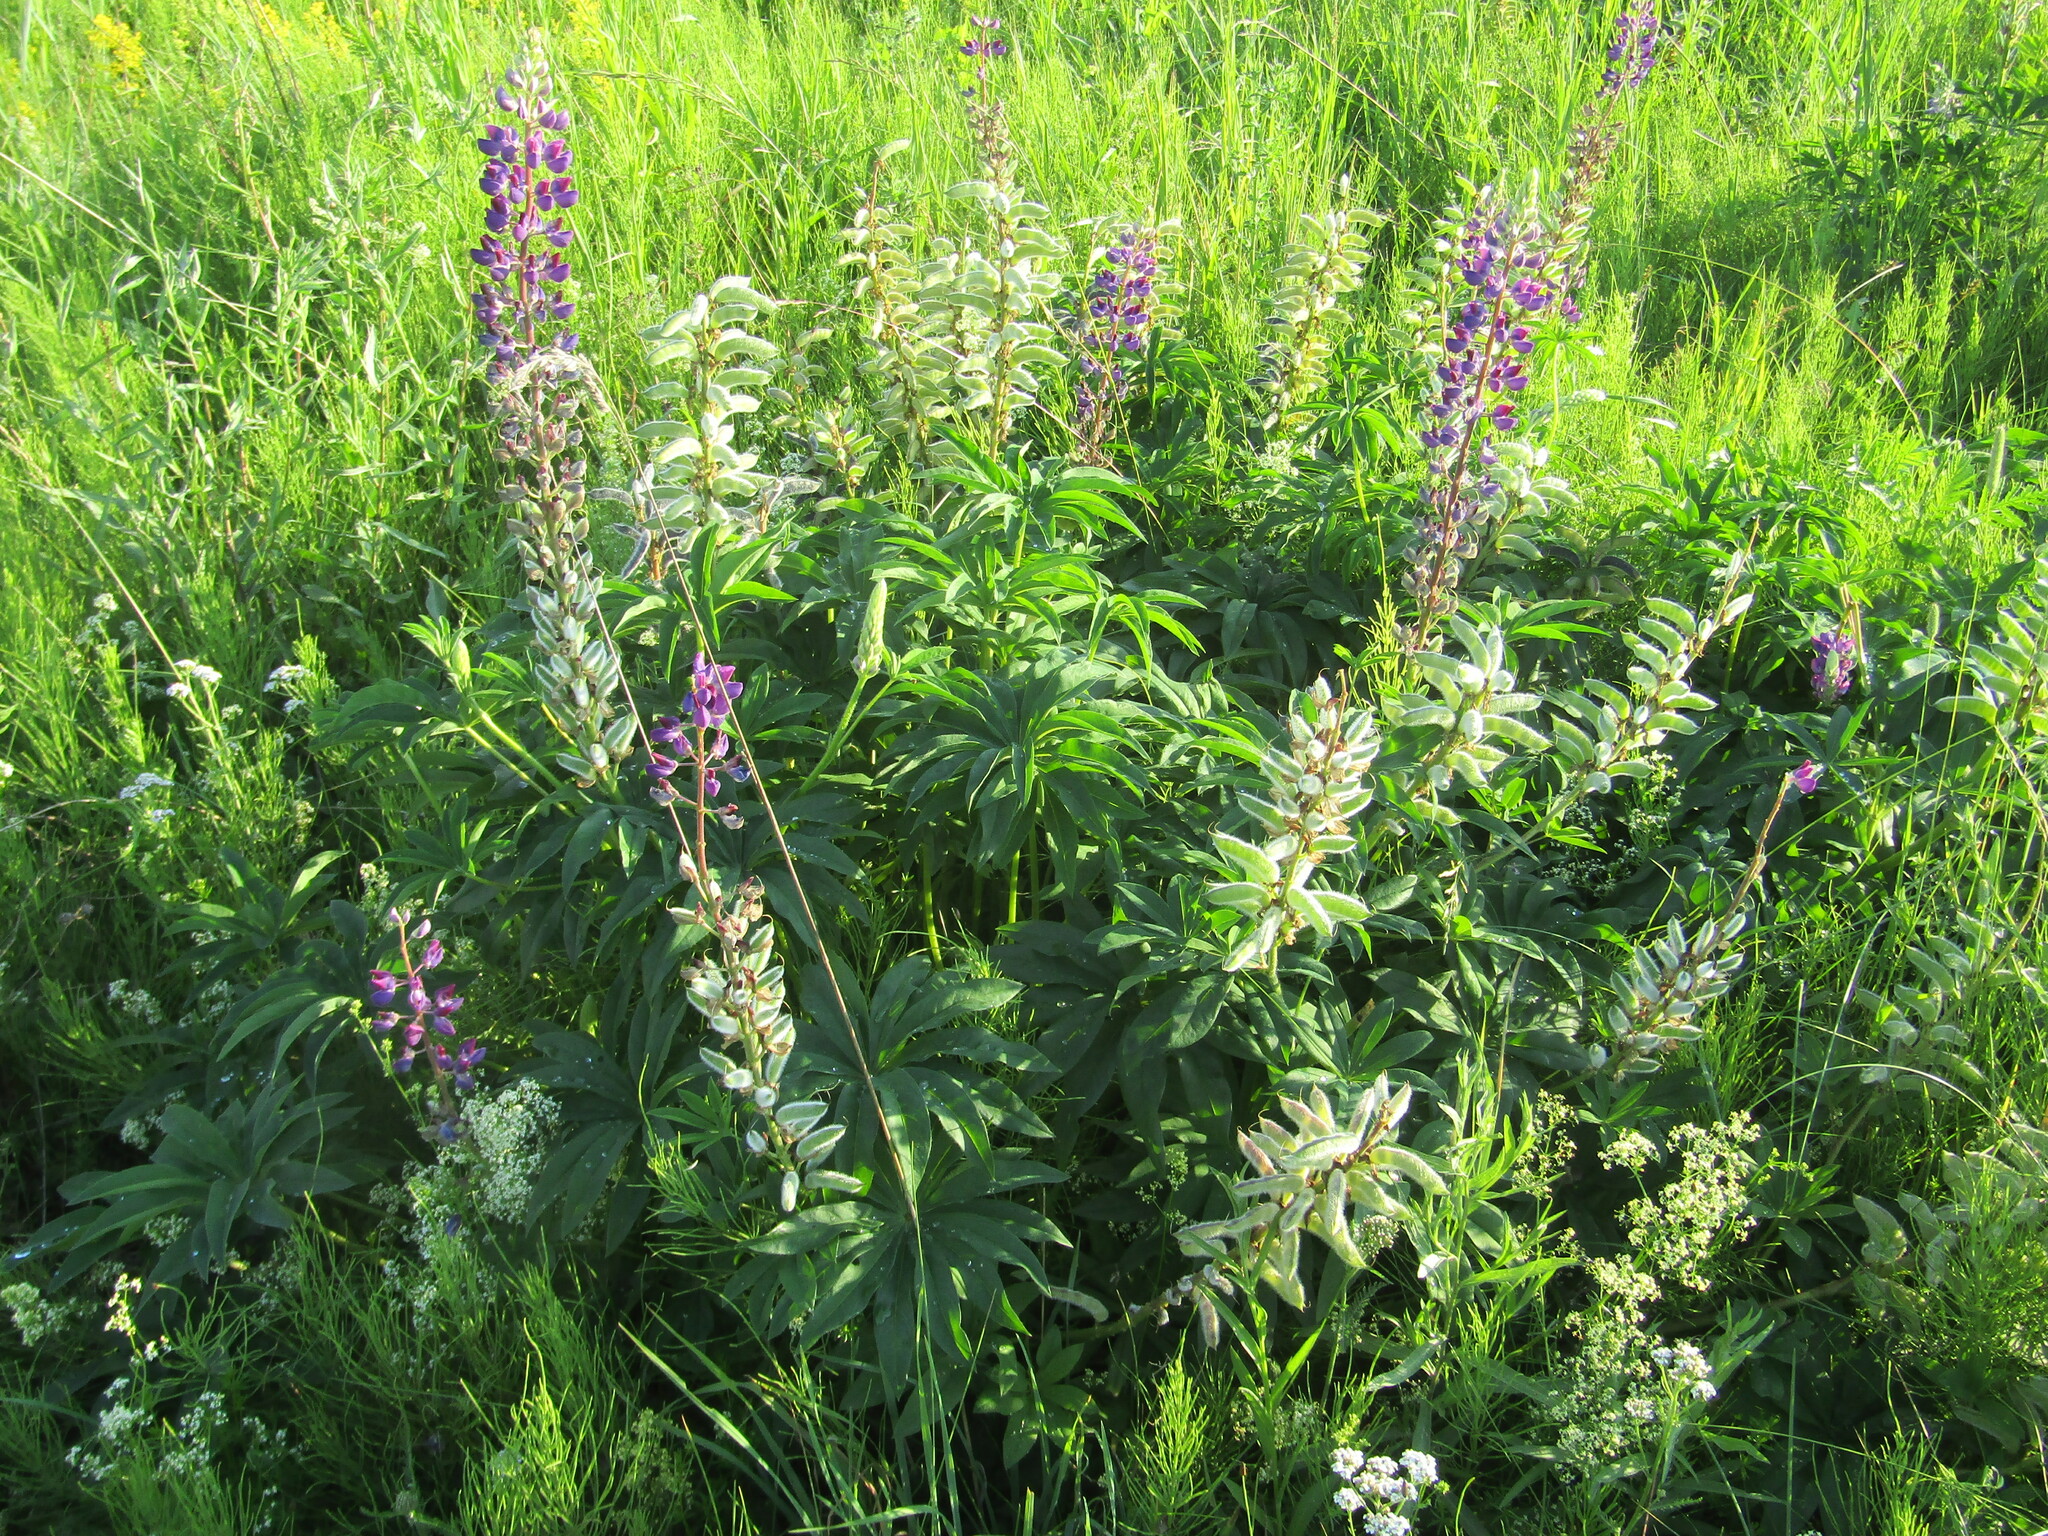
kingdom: Plantae
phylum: Tracheophyta
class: Magnoliopsida
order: Fabales
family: Fabaceae
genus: Lupinus
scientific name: Lupinus polyphyllus
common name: Garden lupin
